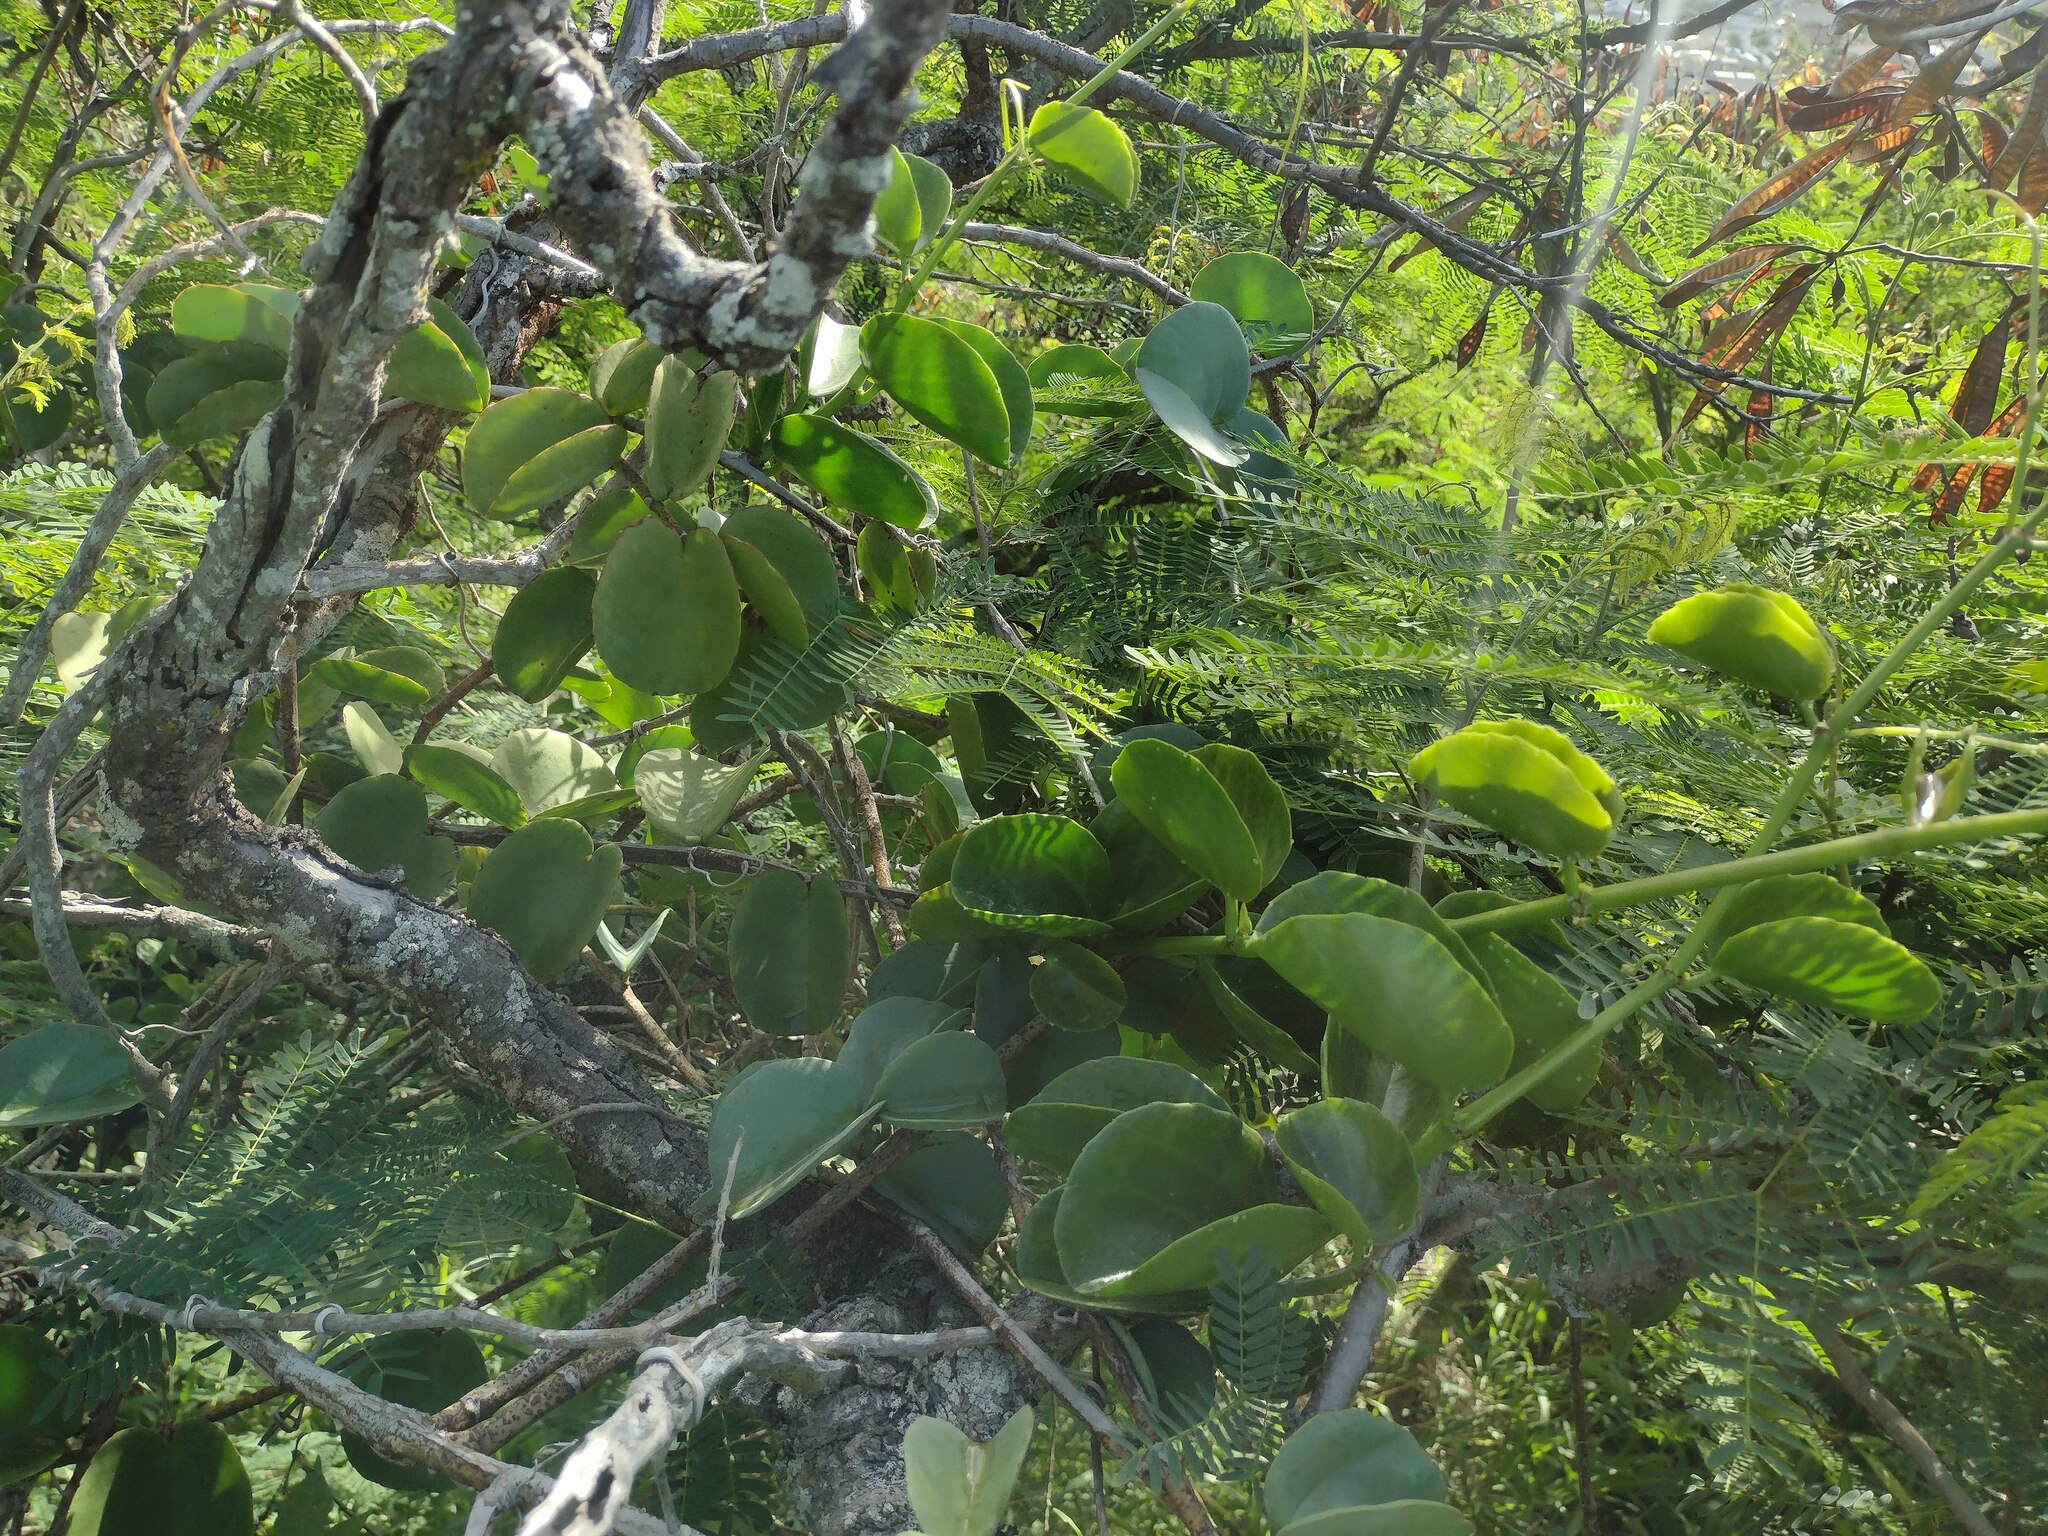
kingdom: Plantae
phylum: Tracheophyta
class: Magnoliopsida
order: Vitales
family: Vitaceae
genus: Cissus
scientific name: Cissus rotundifolia
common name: Arabian wax cissus
